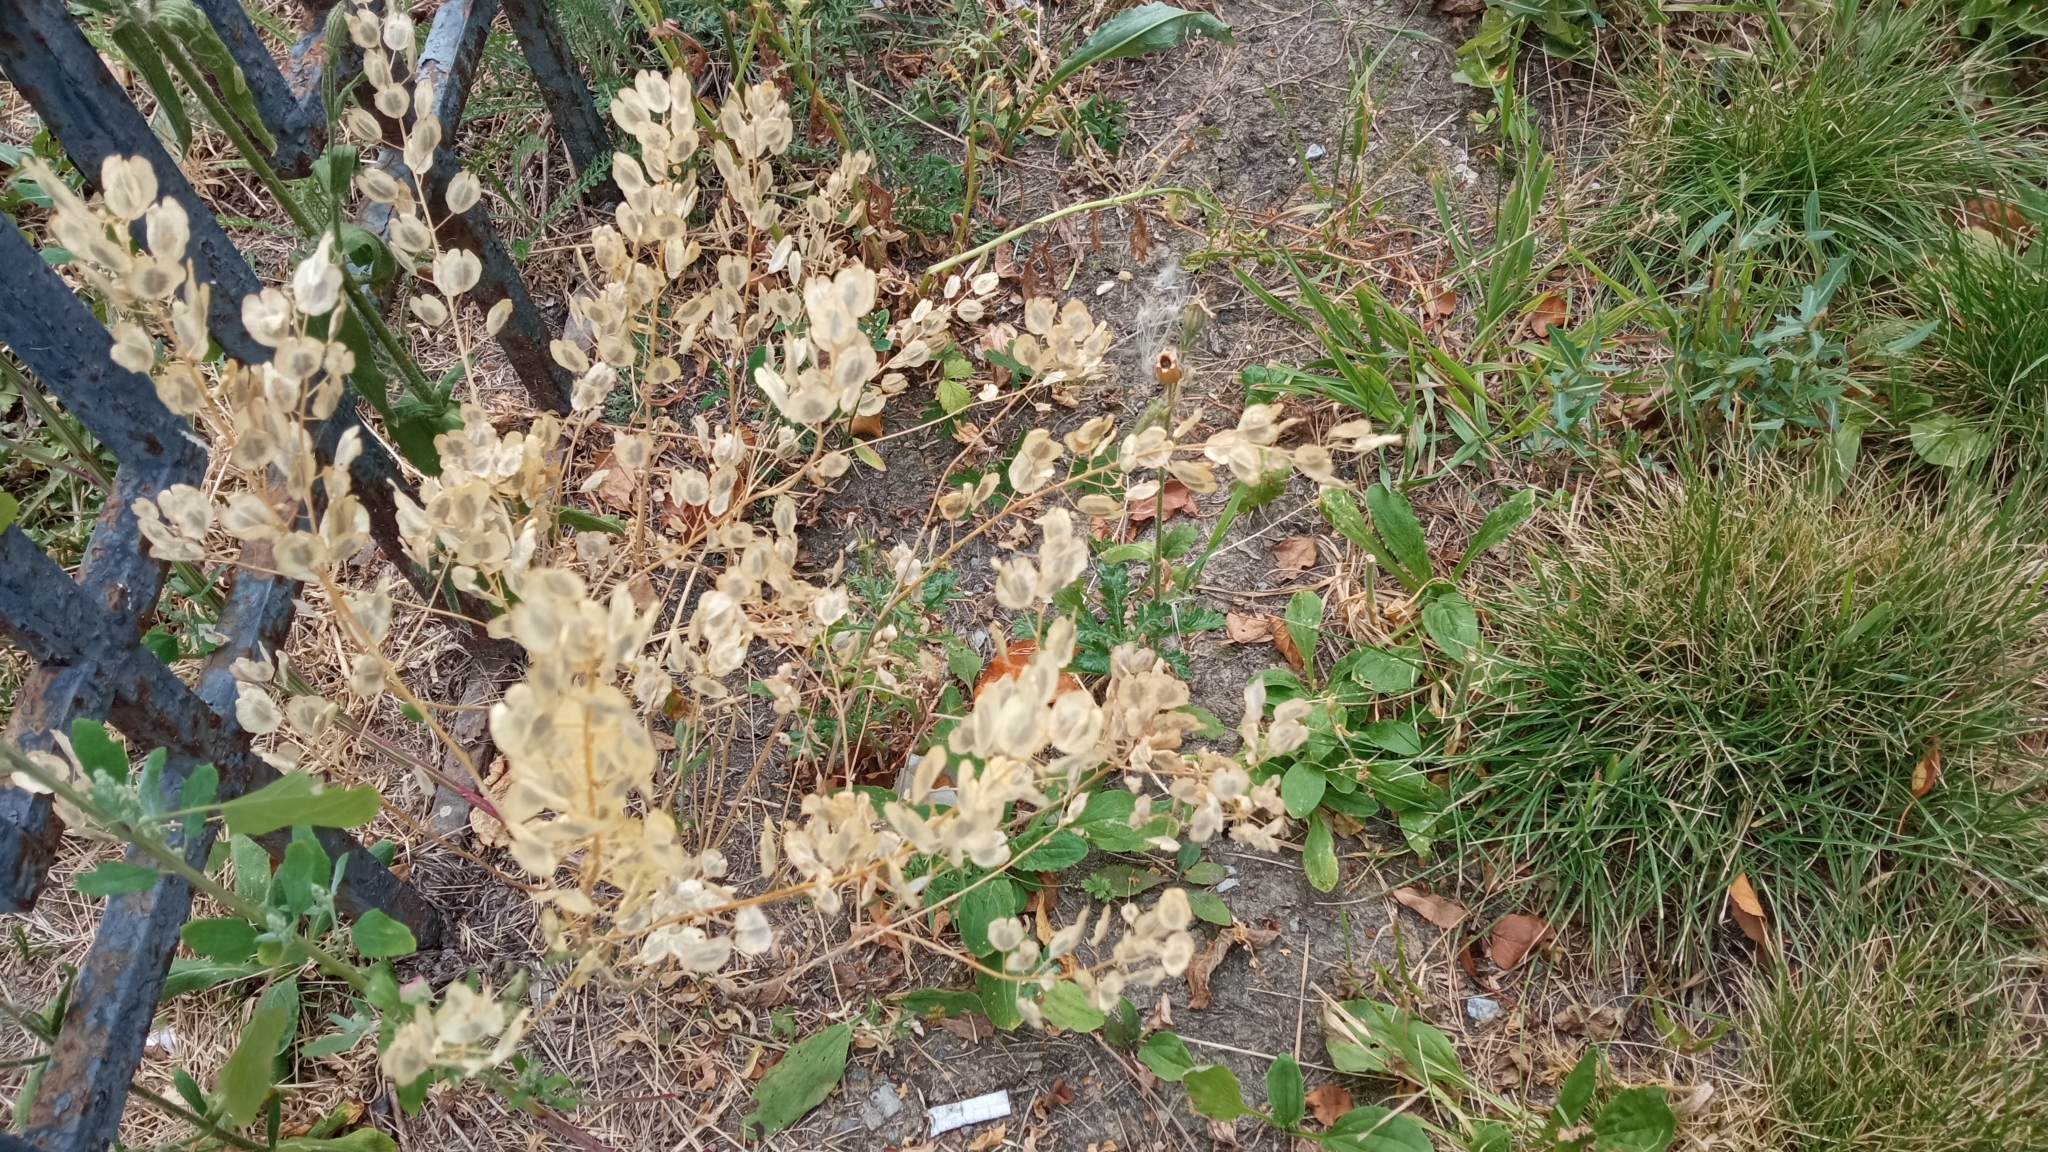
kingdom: Plantae
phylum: Tracheophyta
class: Magnoliopsida
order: Brassicales
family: Brassicaceae
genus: Thlaspi
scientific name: Thlaspi arvense
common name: Field pennycress
